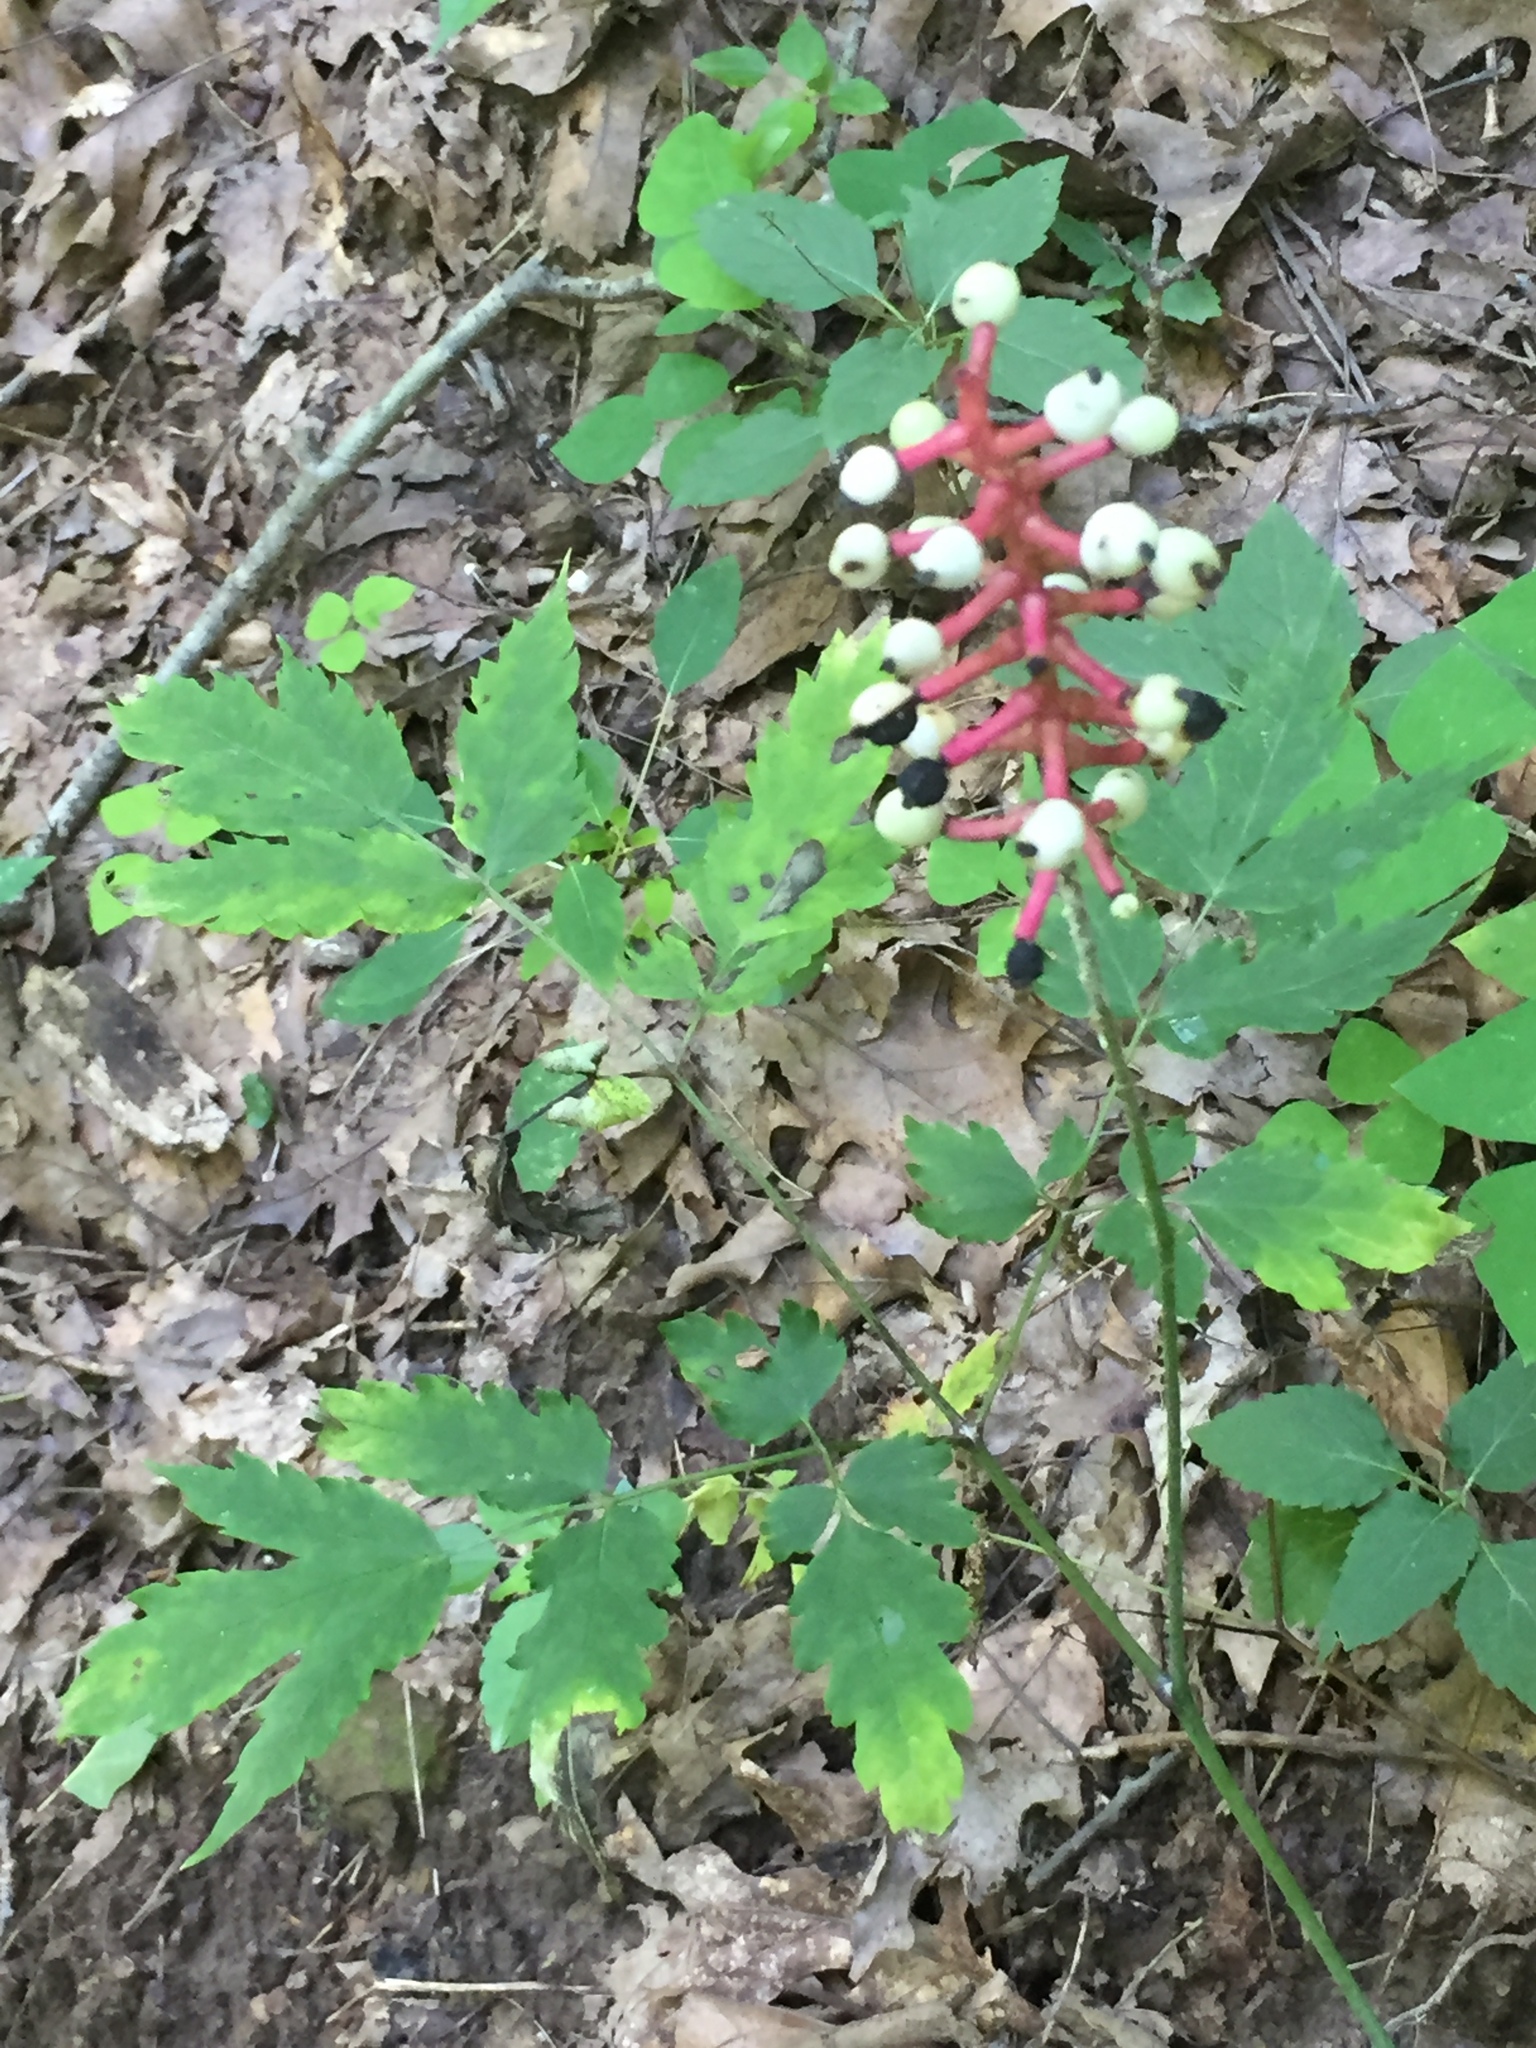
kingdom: Plantae
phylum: Tracheophyta
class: Magnoliopsida
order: Ranunculales
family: Ranunculaceae
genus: Actaea
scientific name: Actaea pachypoda
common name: Doll's-eyes
